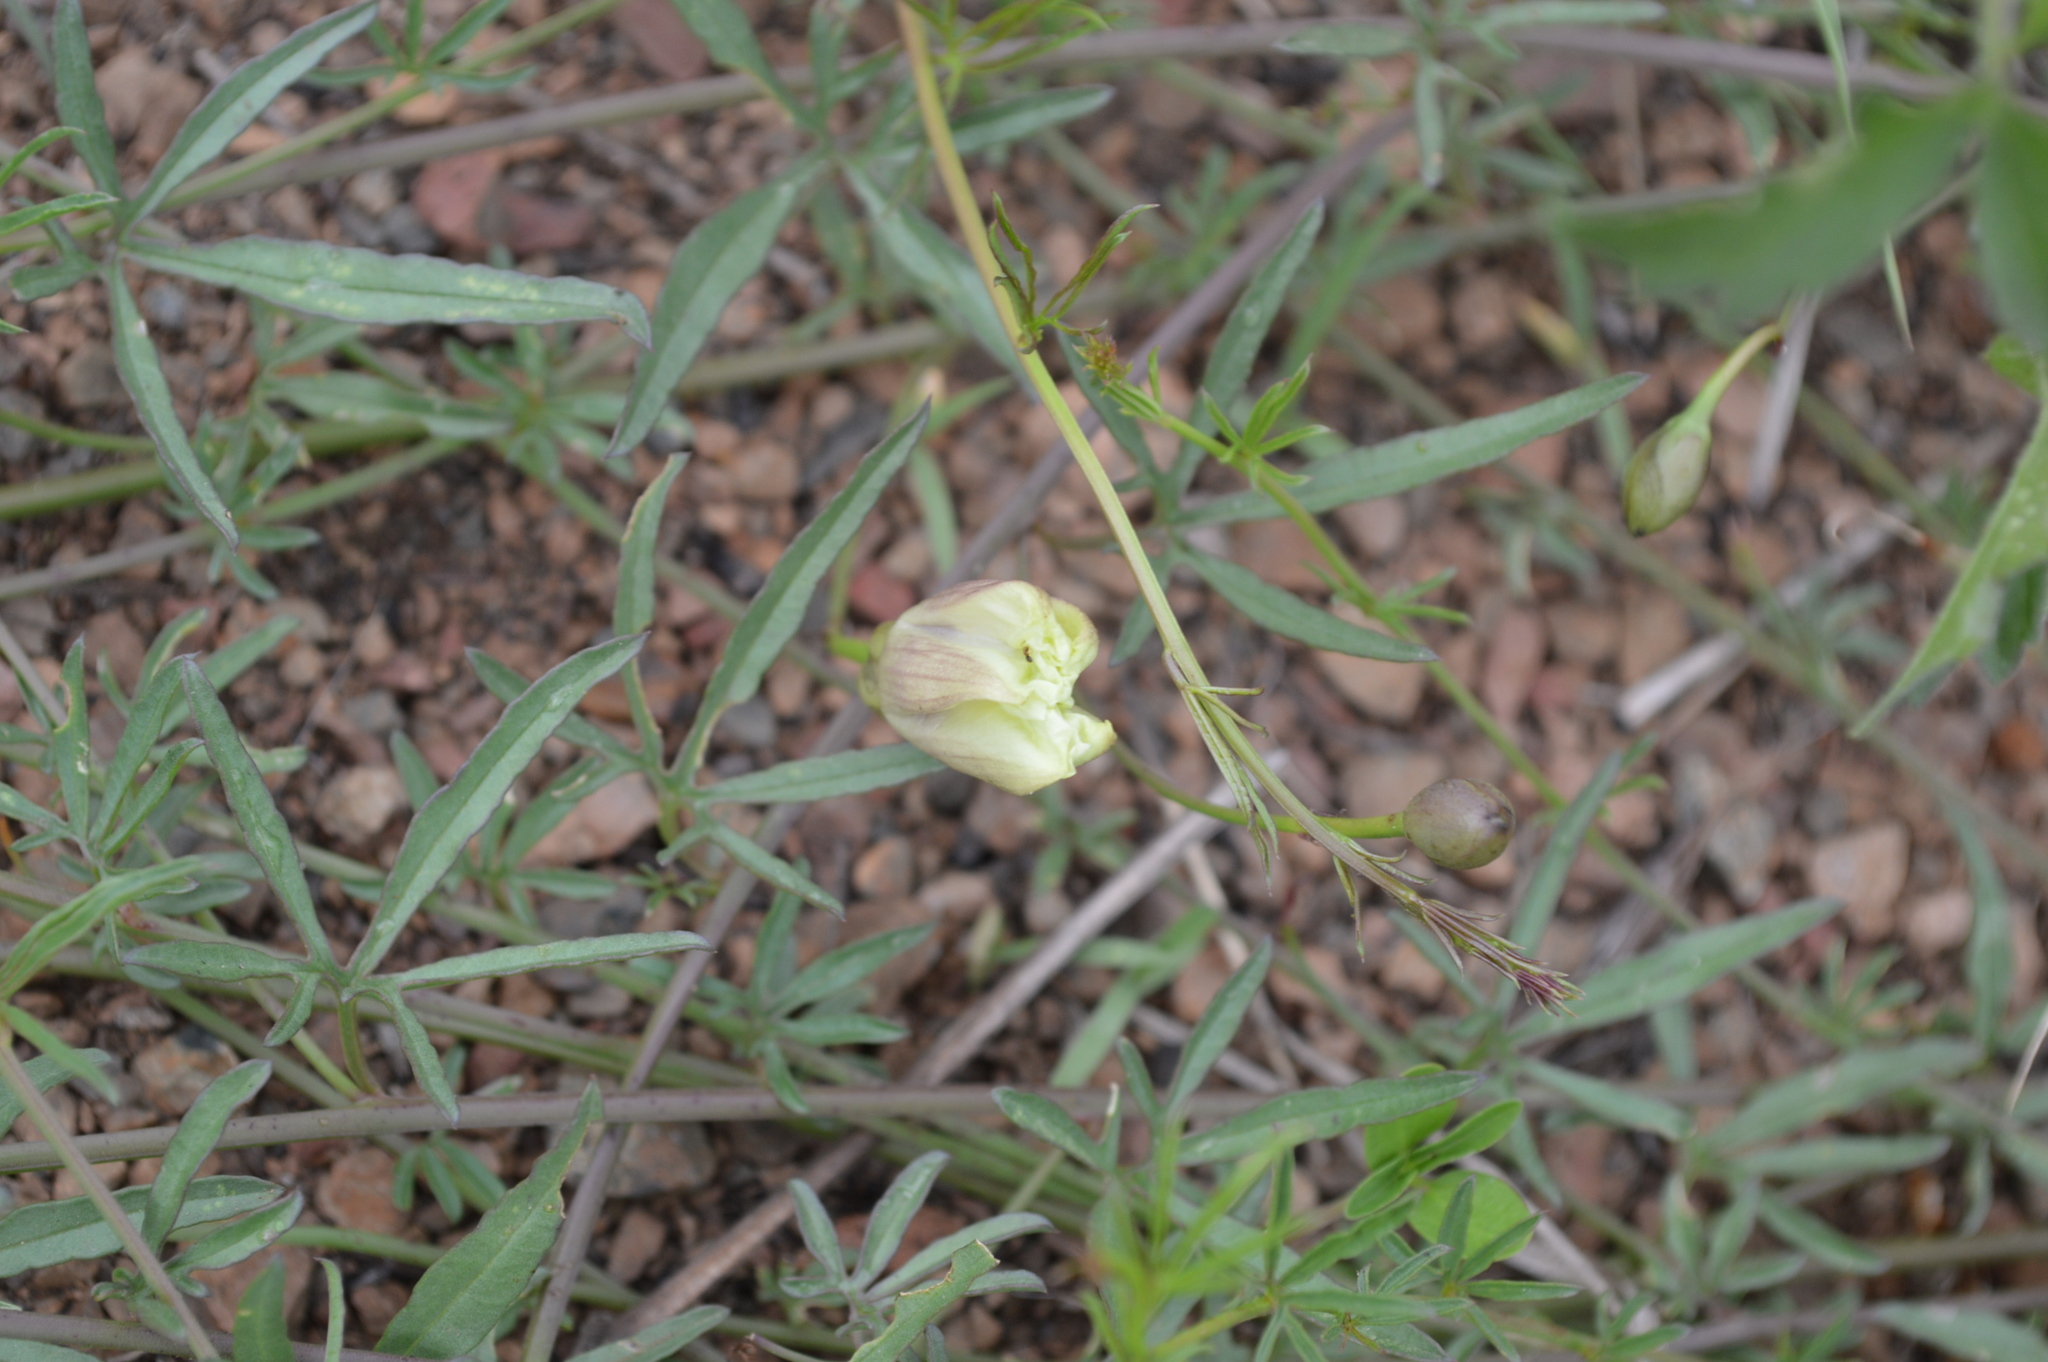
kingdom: Plantae
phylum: Tracheophyta
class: Magnoliopsida
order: Solanales
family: Convolvulaceae
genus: Merremia
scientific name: Merremia palmata
